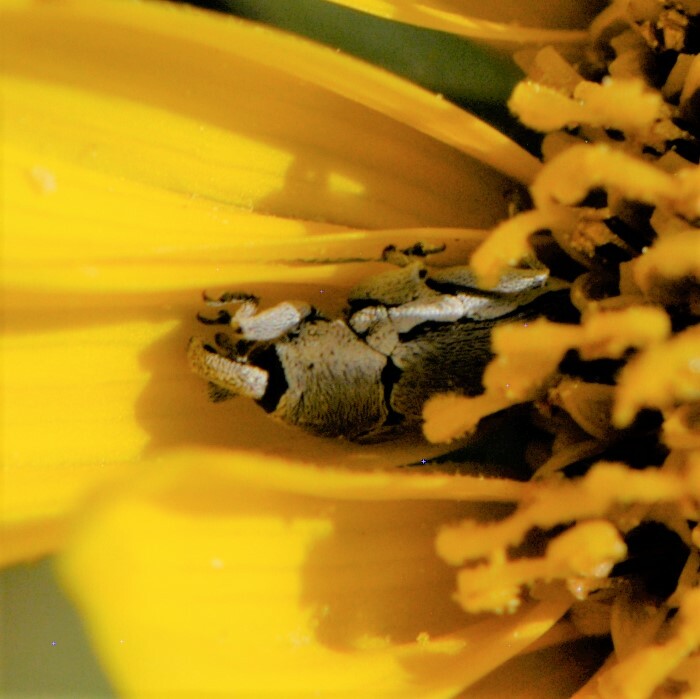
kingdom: Animalia
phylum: Arthropoda
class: Insecta
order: Coleoptera
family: Curculionidae
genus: Trichobaris
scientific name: Trichobaris
